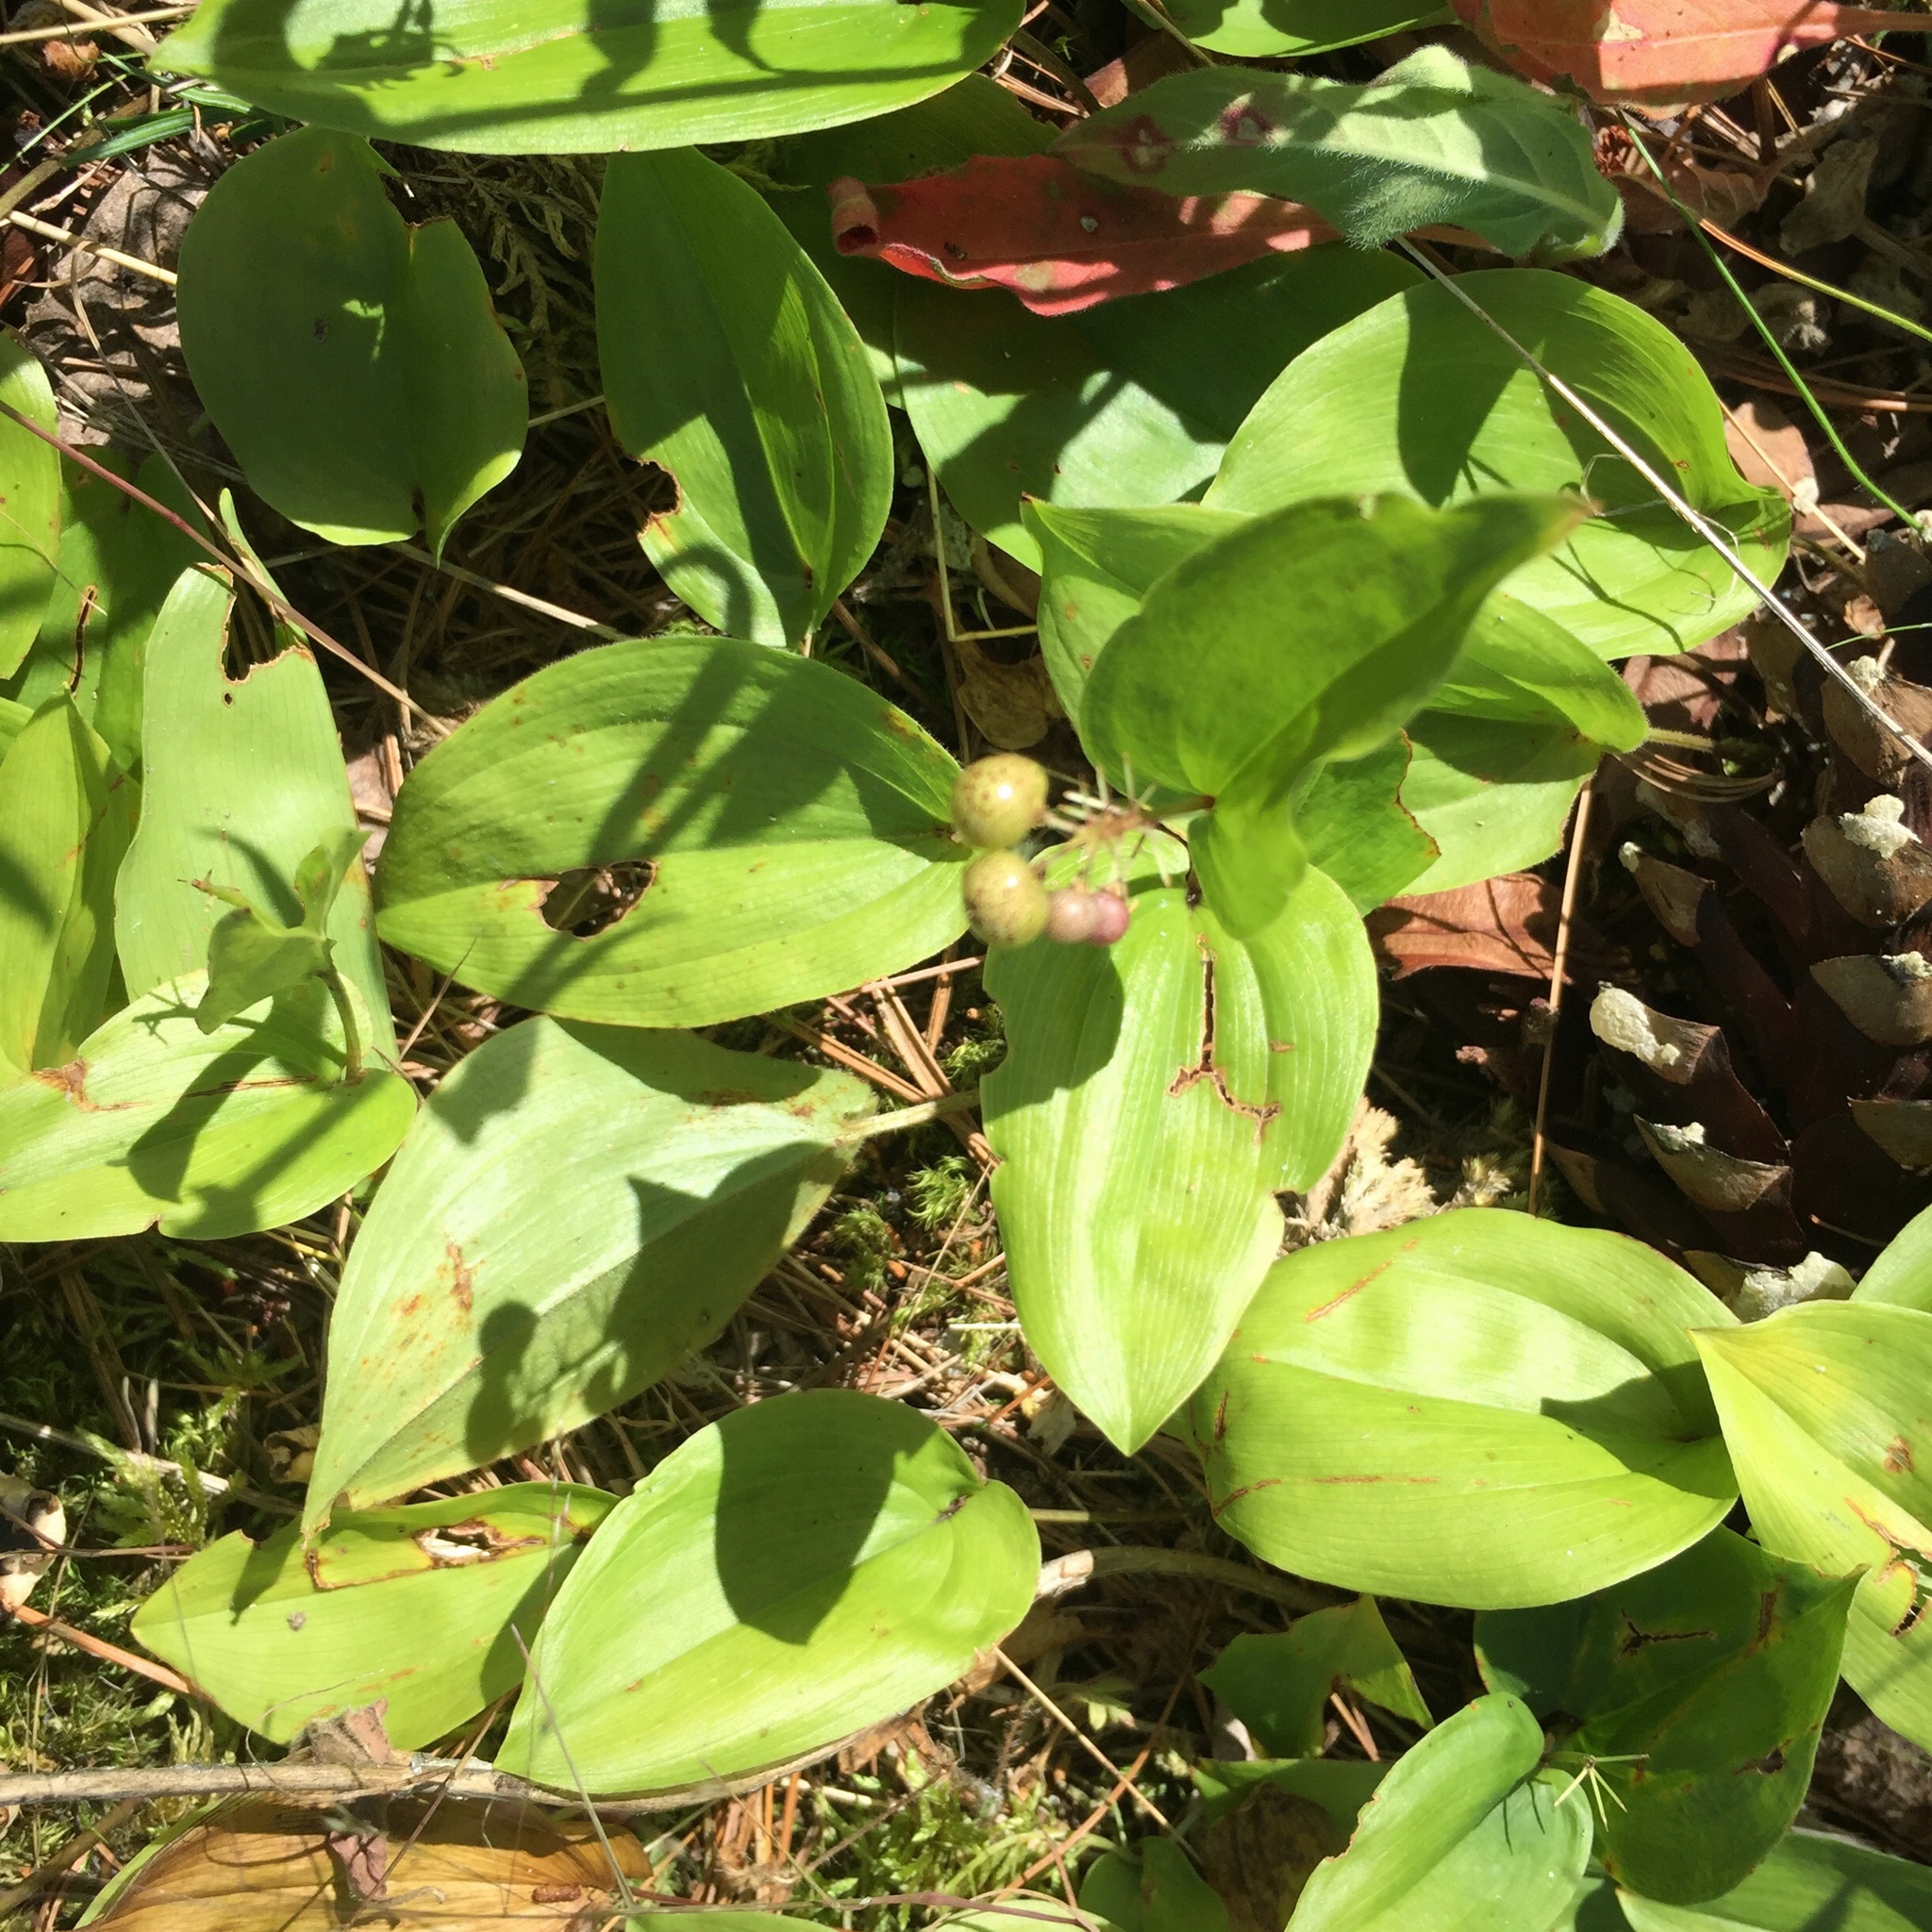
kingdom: Plantae
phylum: Tracheophyta
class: Liliopsida
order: Asparagales
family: Asparagaceae
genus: Maianthemum
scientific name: Maianthemum canadense
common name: False lily-of-the-valley
